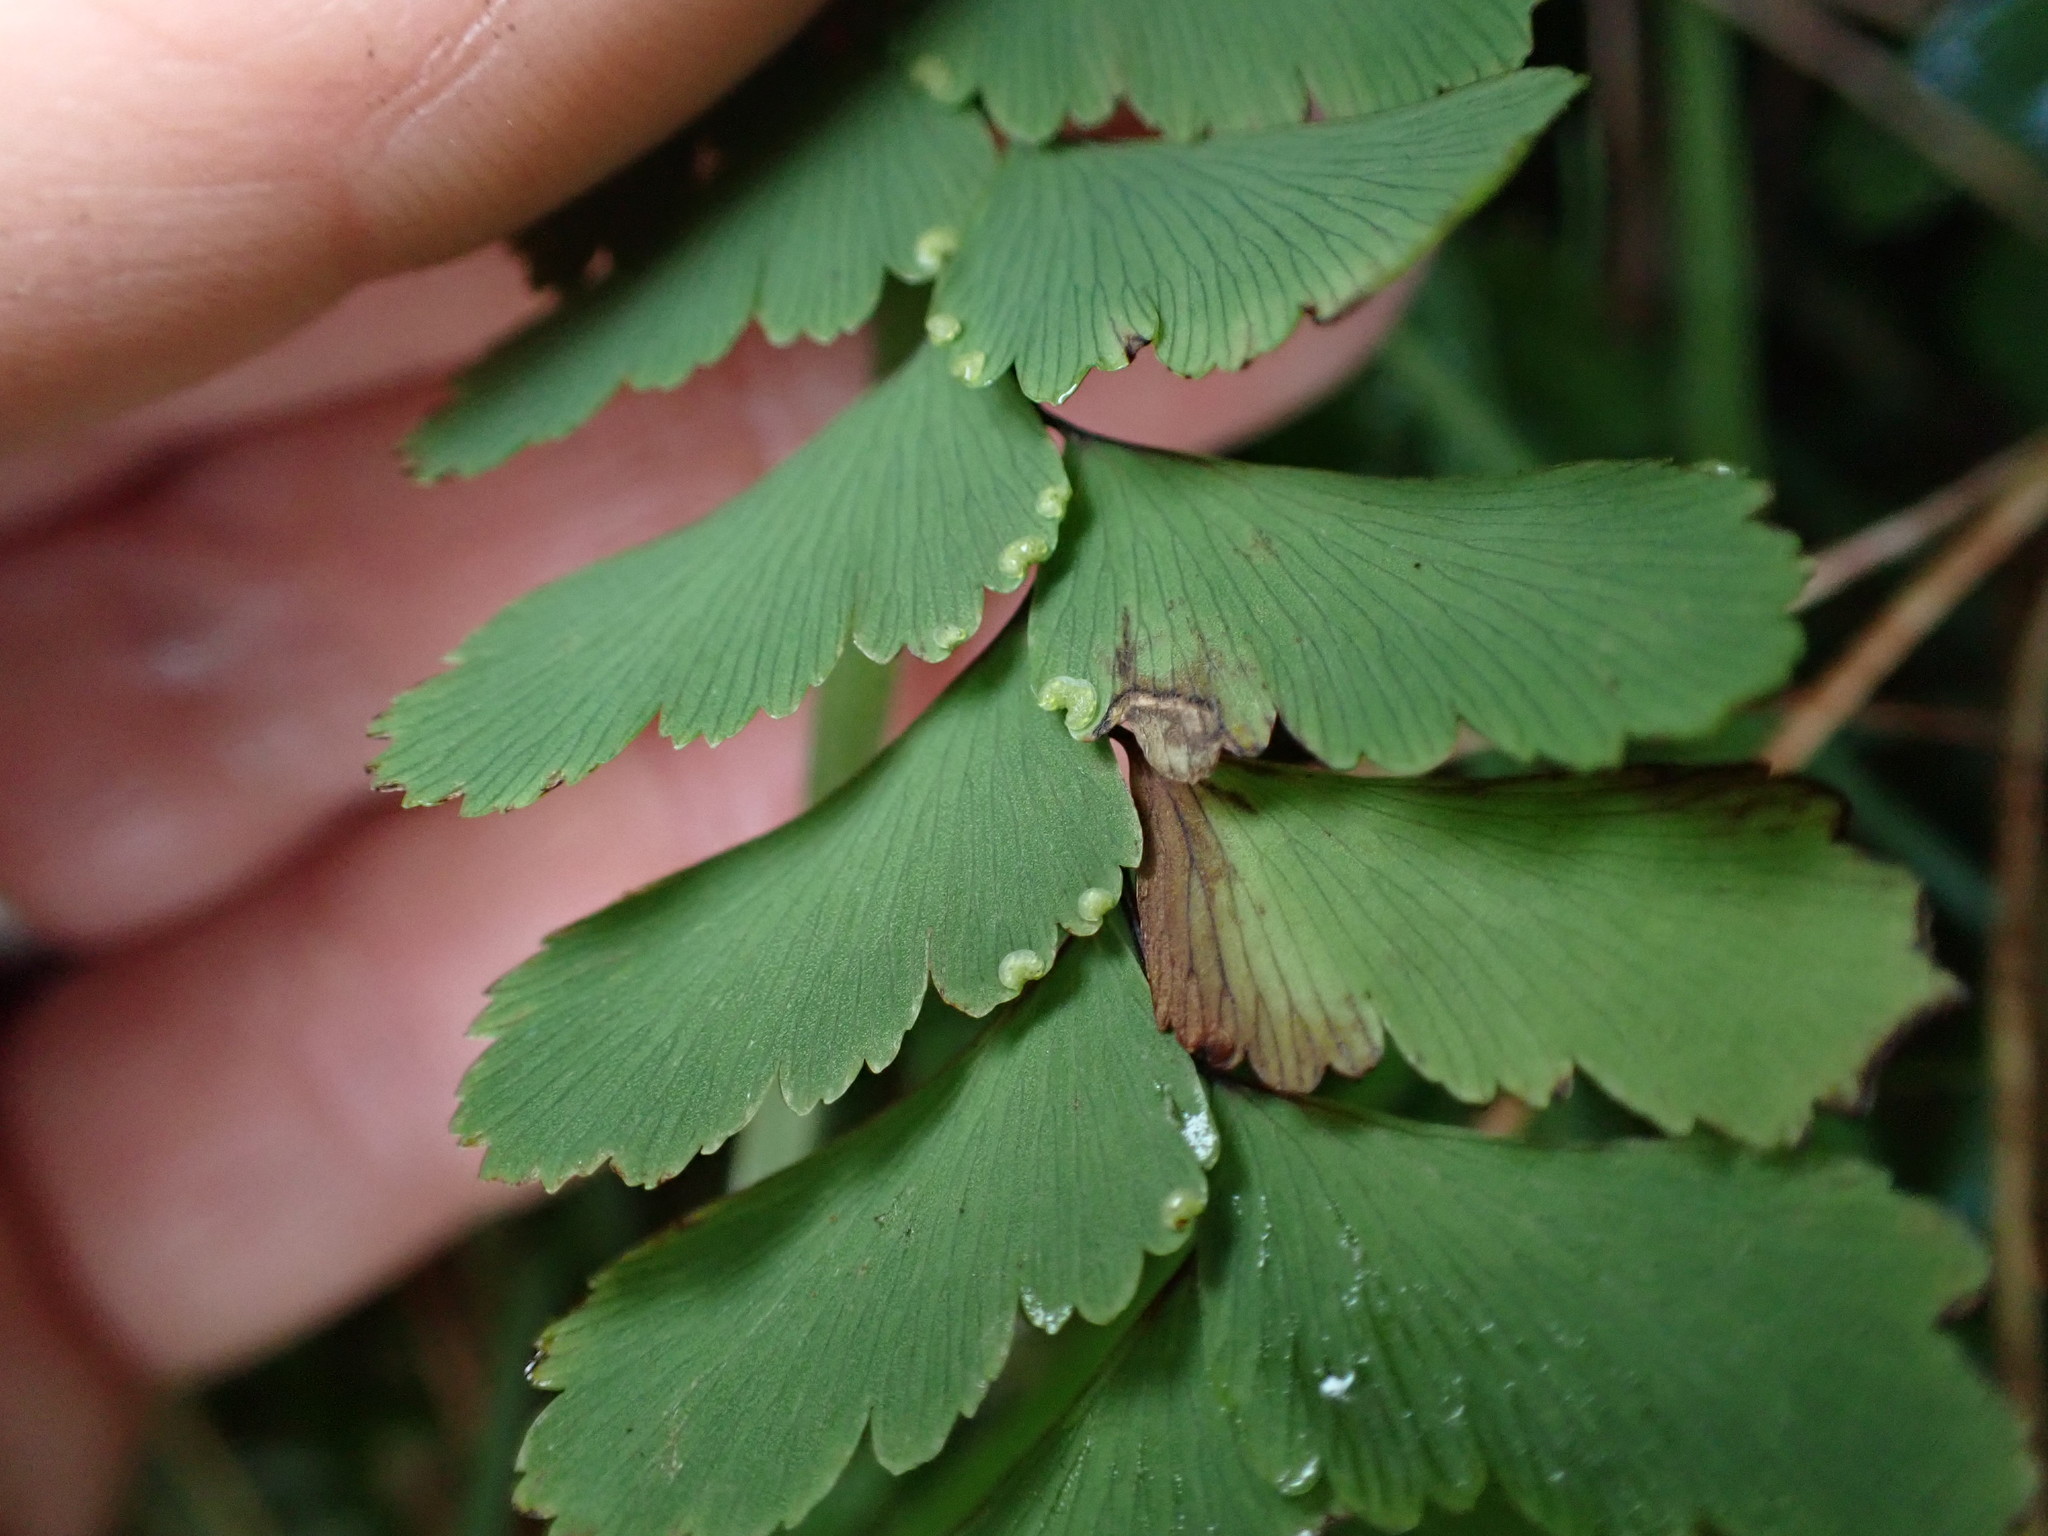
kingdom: Plantae
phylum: Tracheophyta
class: Polypodiopsida
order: Polypodiales
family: Pteridaceae
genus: Adiantum
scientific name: Adiantum cunninghamii
